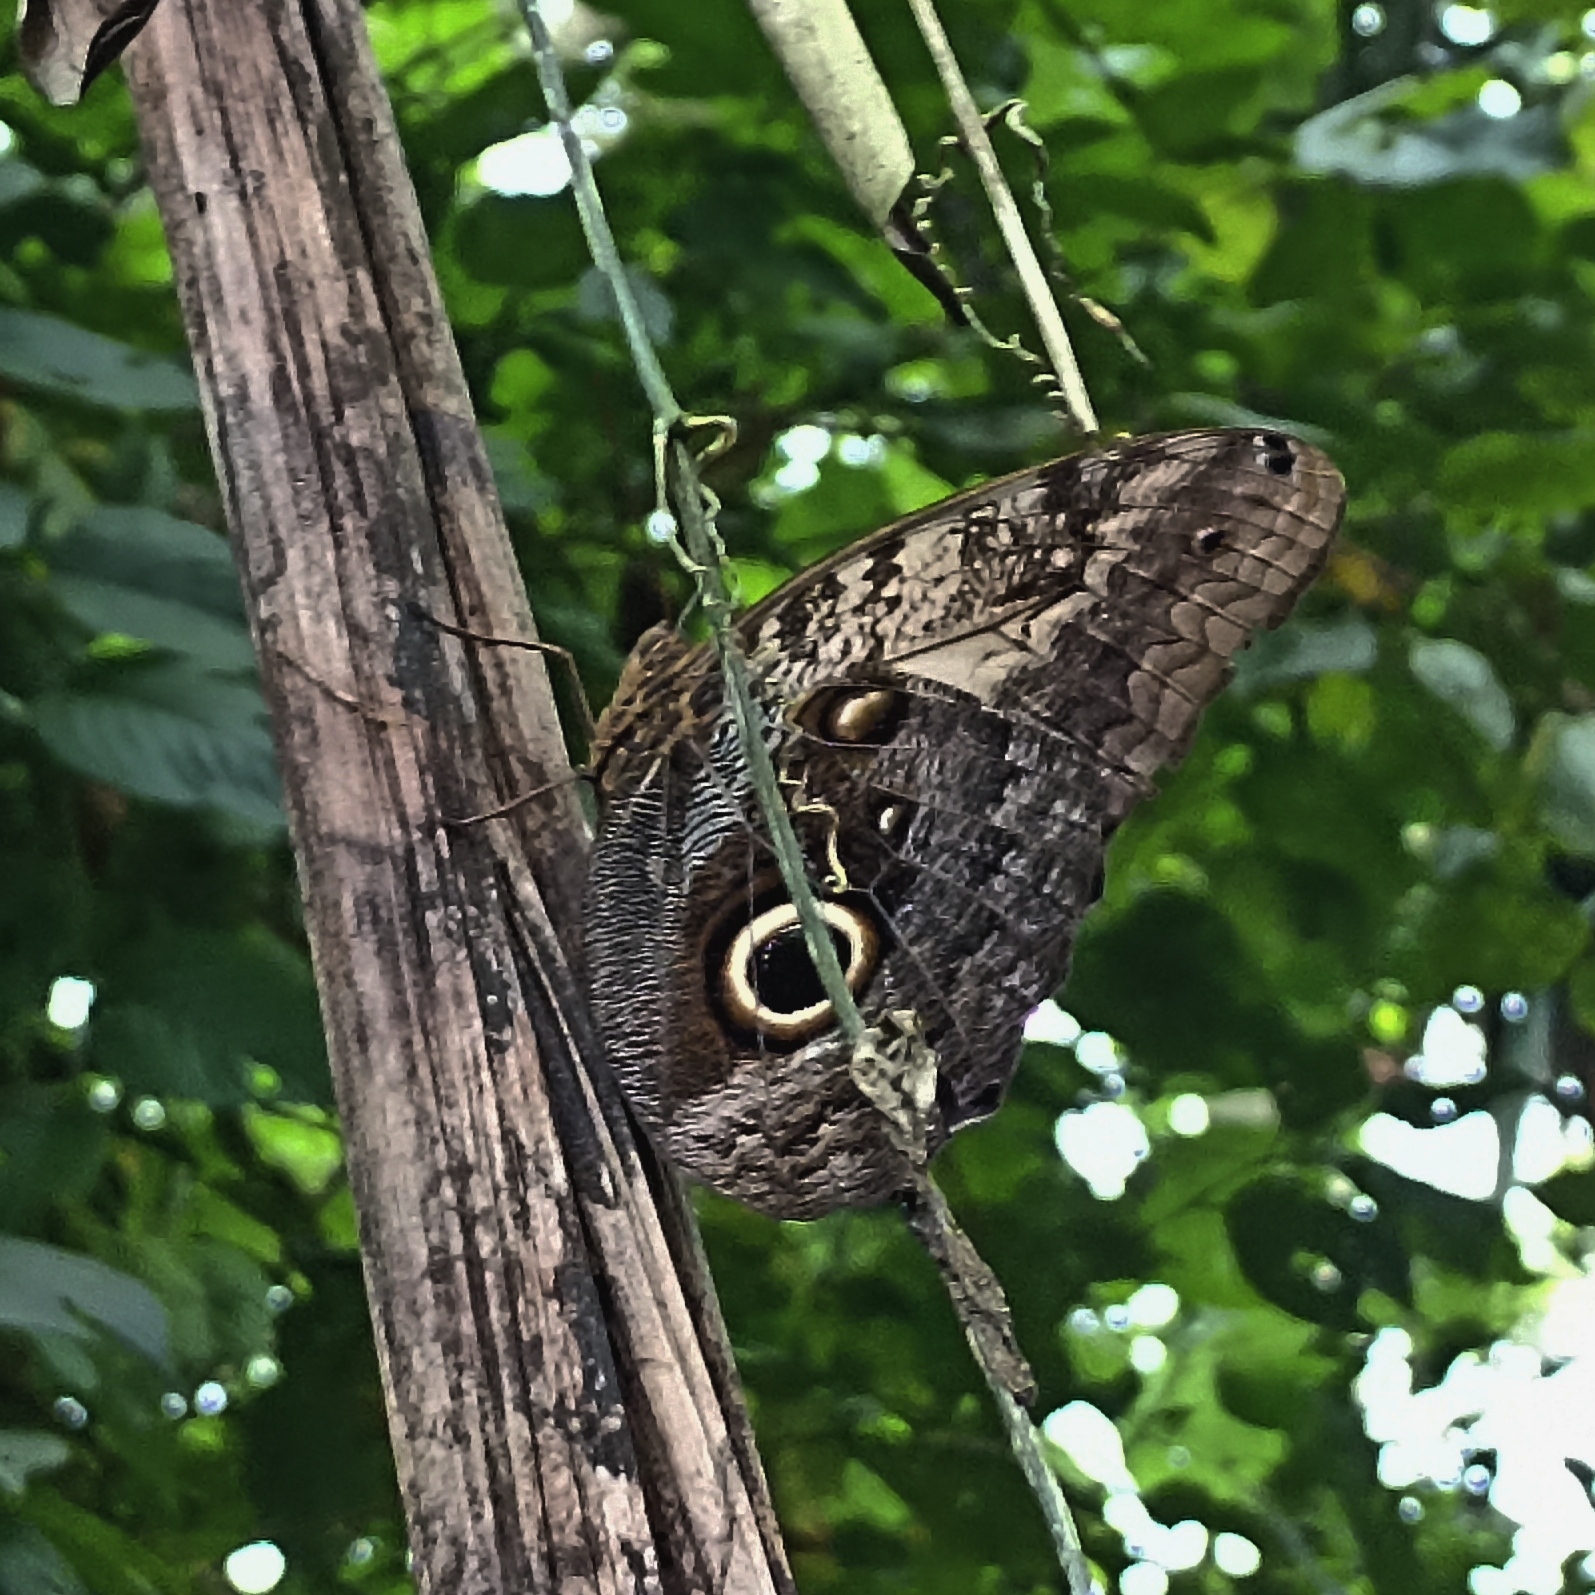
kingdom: Animalia
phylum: Arthropoda
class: Insecta
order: Lepidoptera
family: Nymphalidae
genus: Caligo
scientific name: Caligo telamonius
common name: Pale owl-butterfly
